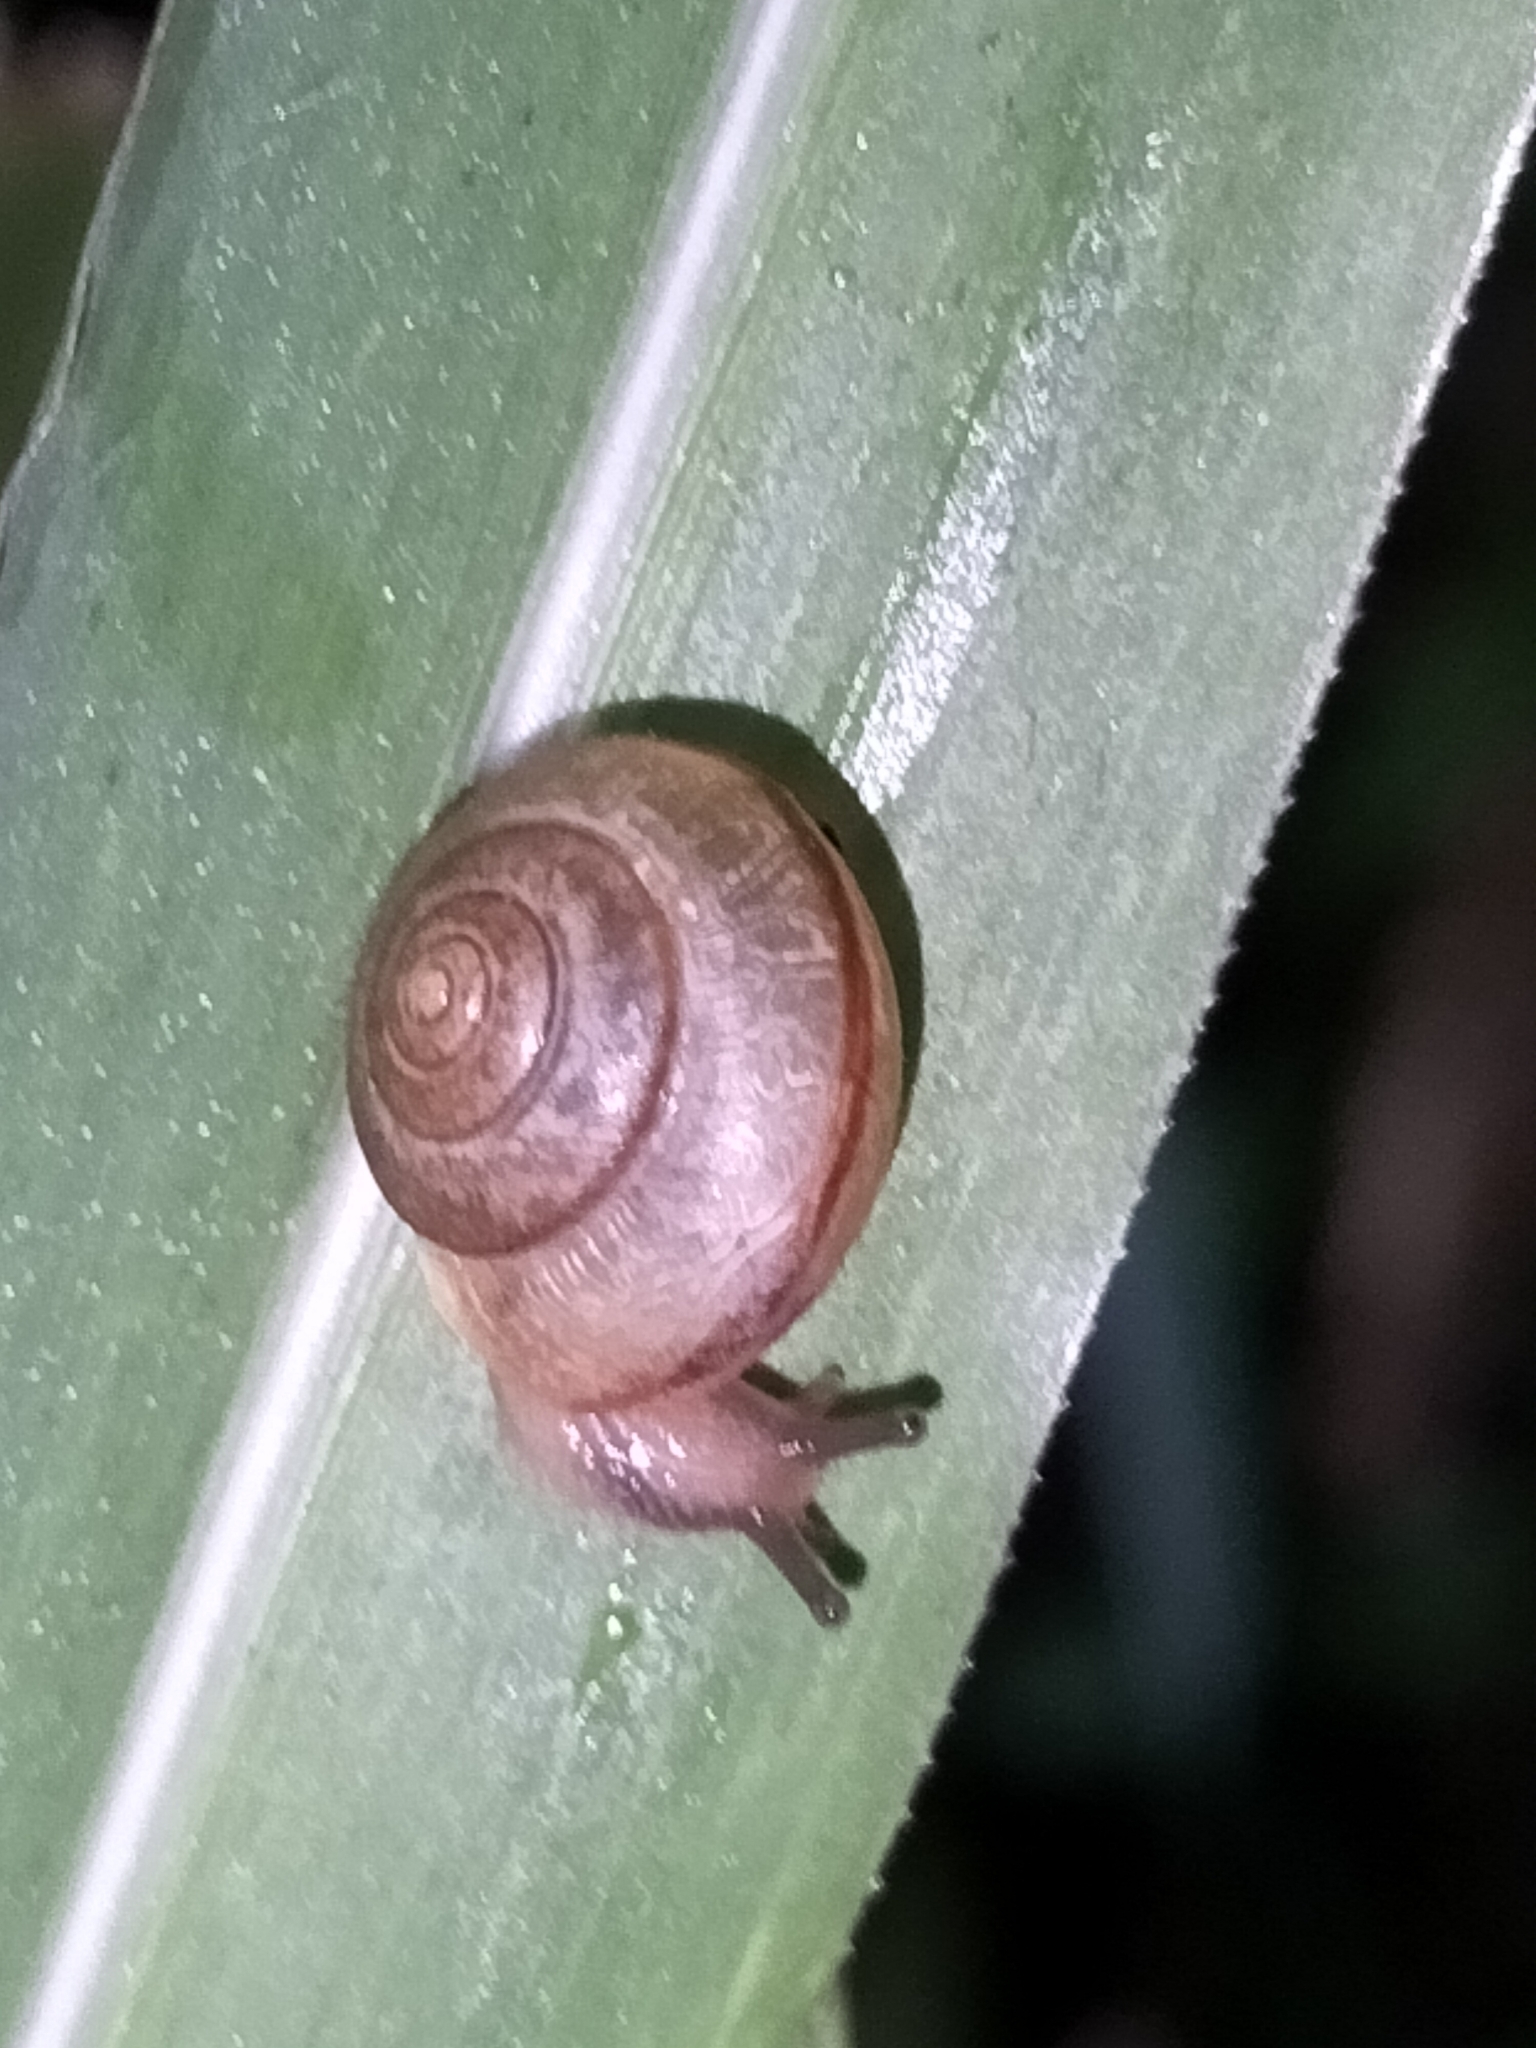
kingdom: Animalia
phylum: Mollusca
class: Gastropoda
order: Stylommatophora
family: Camaenidae
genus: Bradybaena
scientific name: Bradybaena similaris
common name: Asian trampsnail
